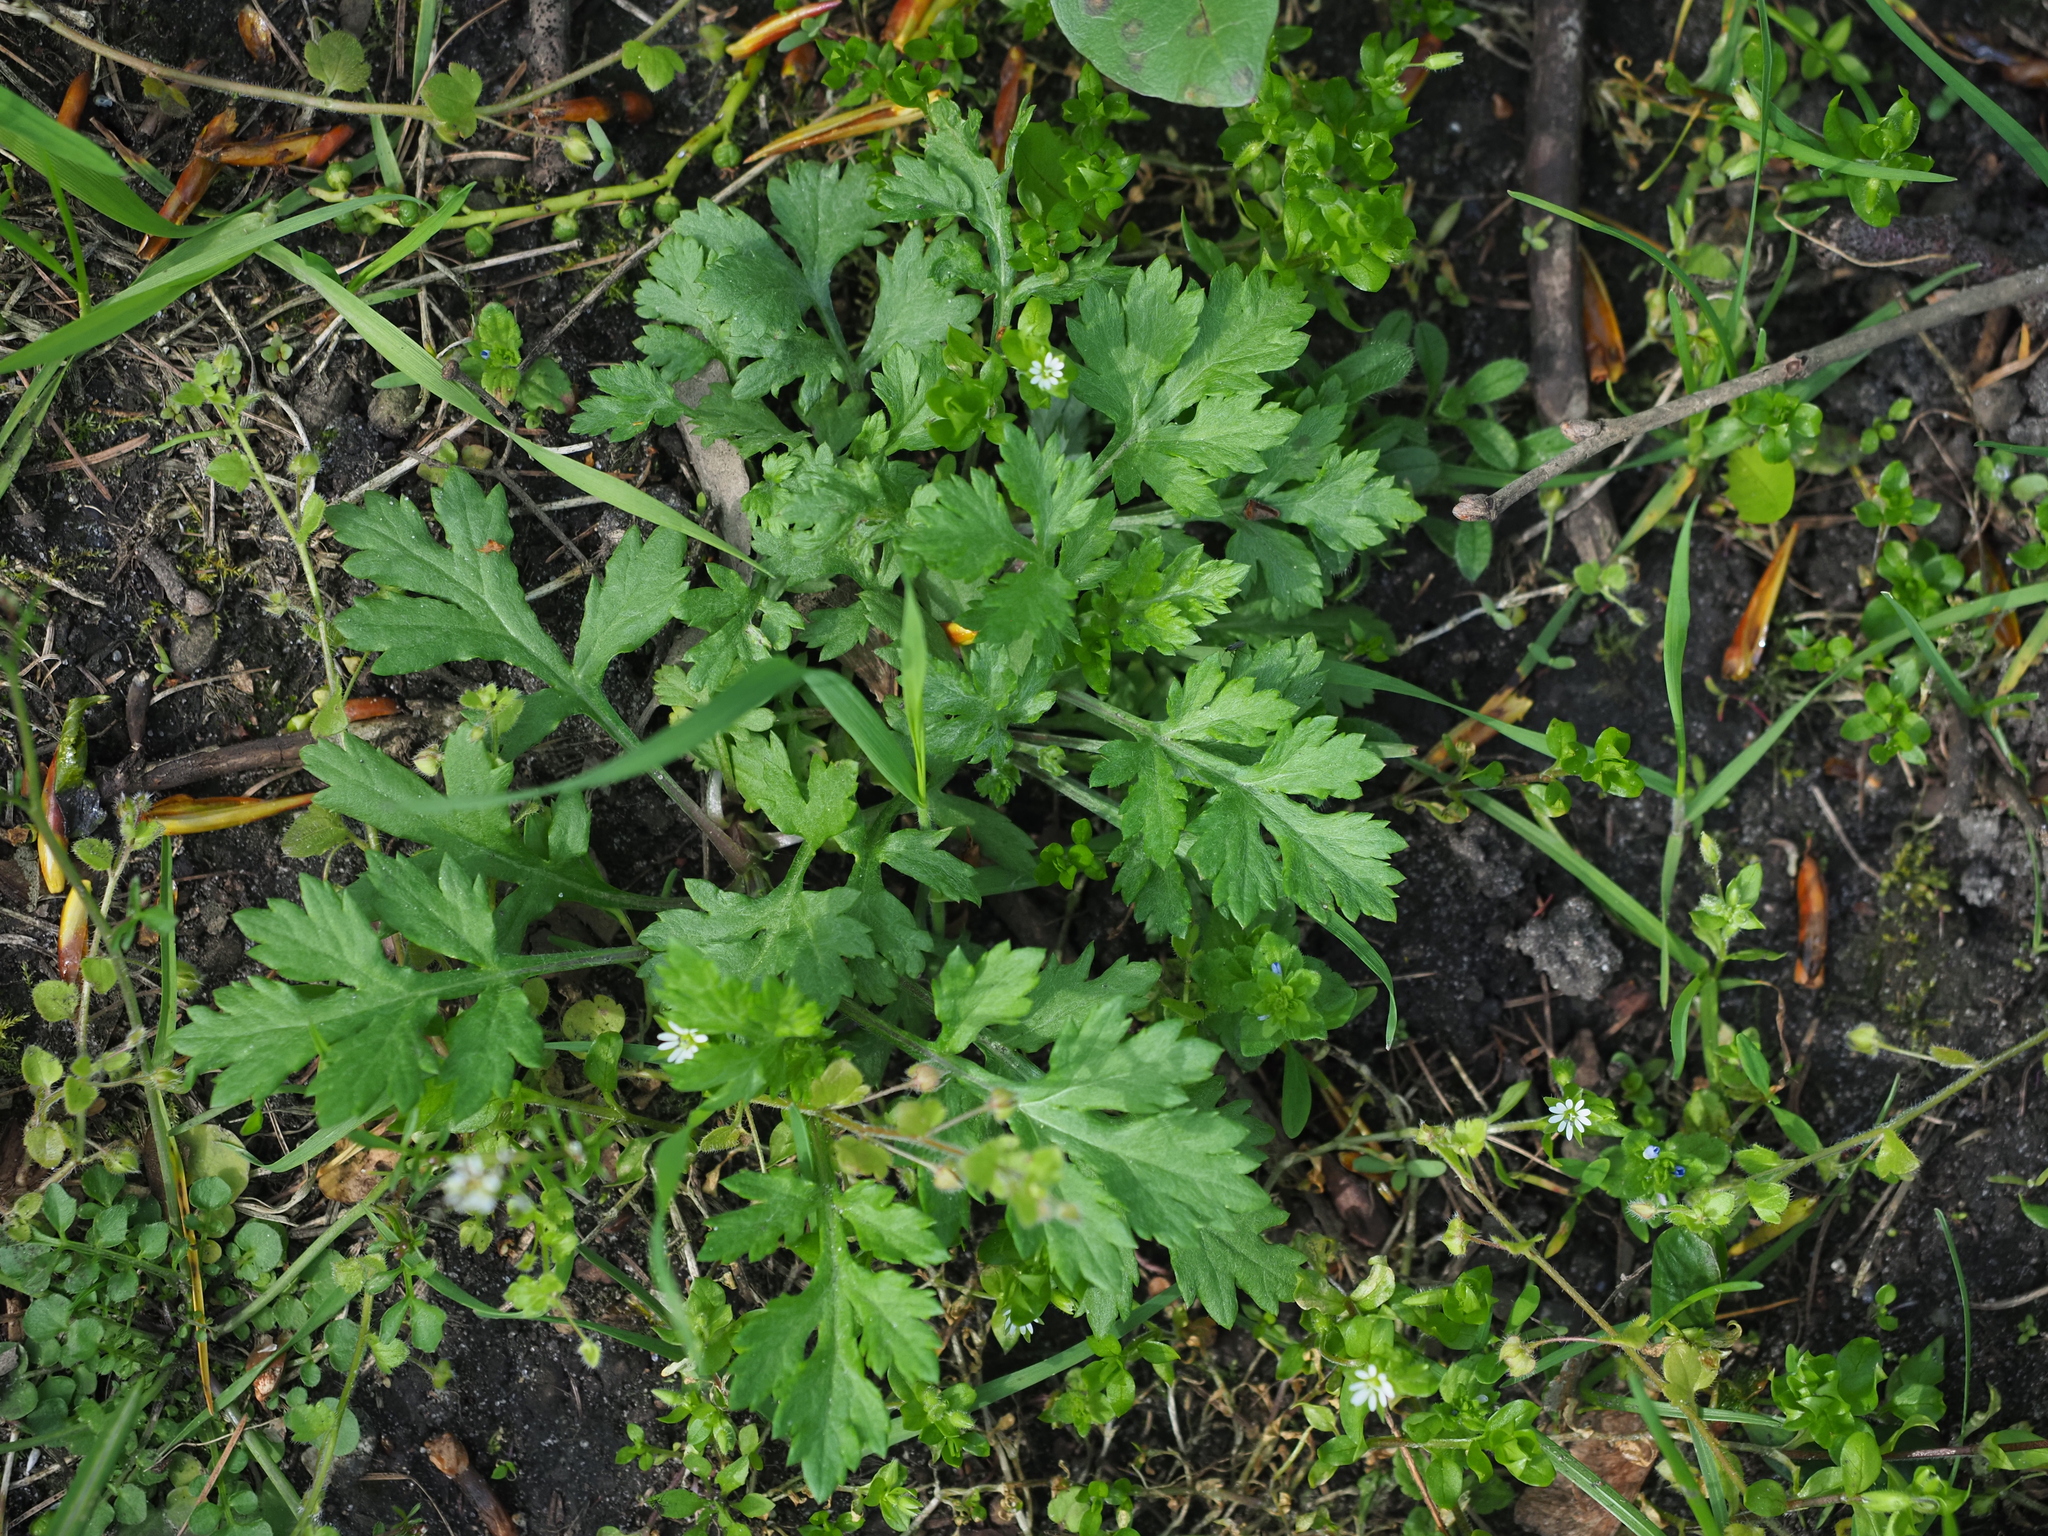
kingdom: Plantae
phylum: Tracheophyta
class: Magnoliopsida
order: Asterales
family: Asteraceae
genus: Artemisia
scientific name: Artemisia vulgaris
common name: Mugwort
